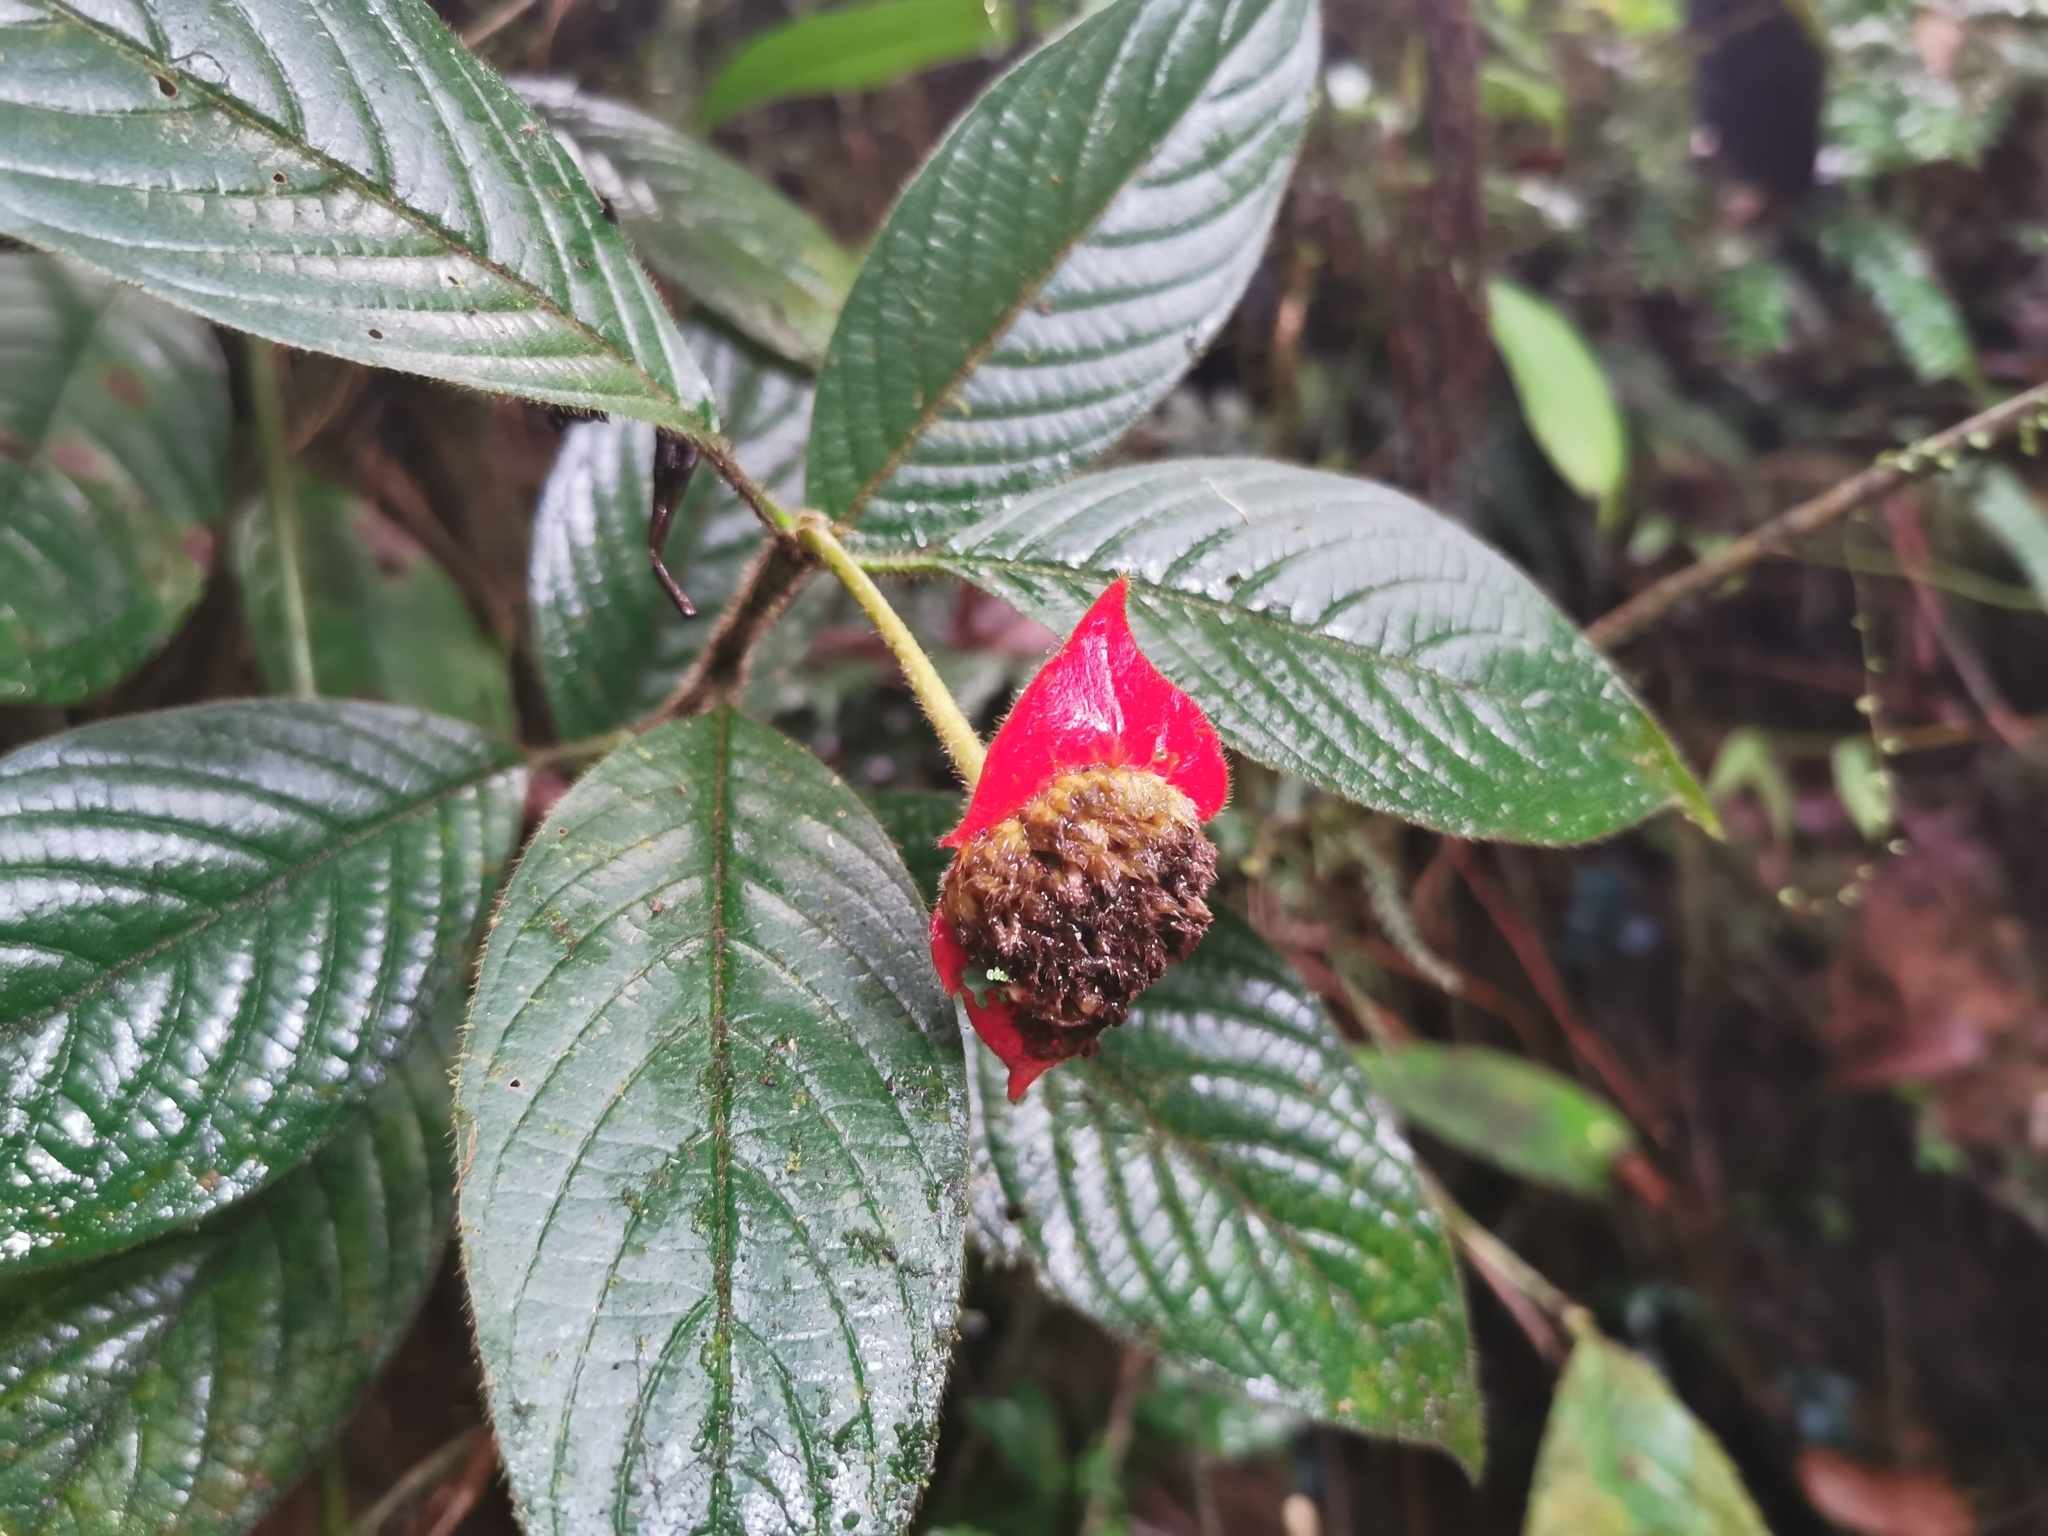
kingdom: Plantae
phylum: Tracheophyta
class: Magnoliopsida
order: Gentianales
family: Rubiaceae
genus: Palicourea
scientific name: Palicourea tomentosa
